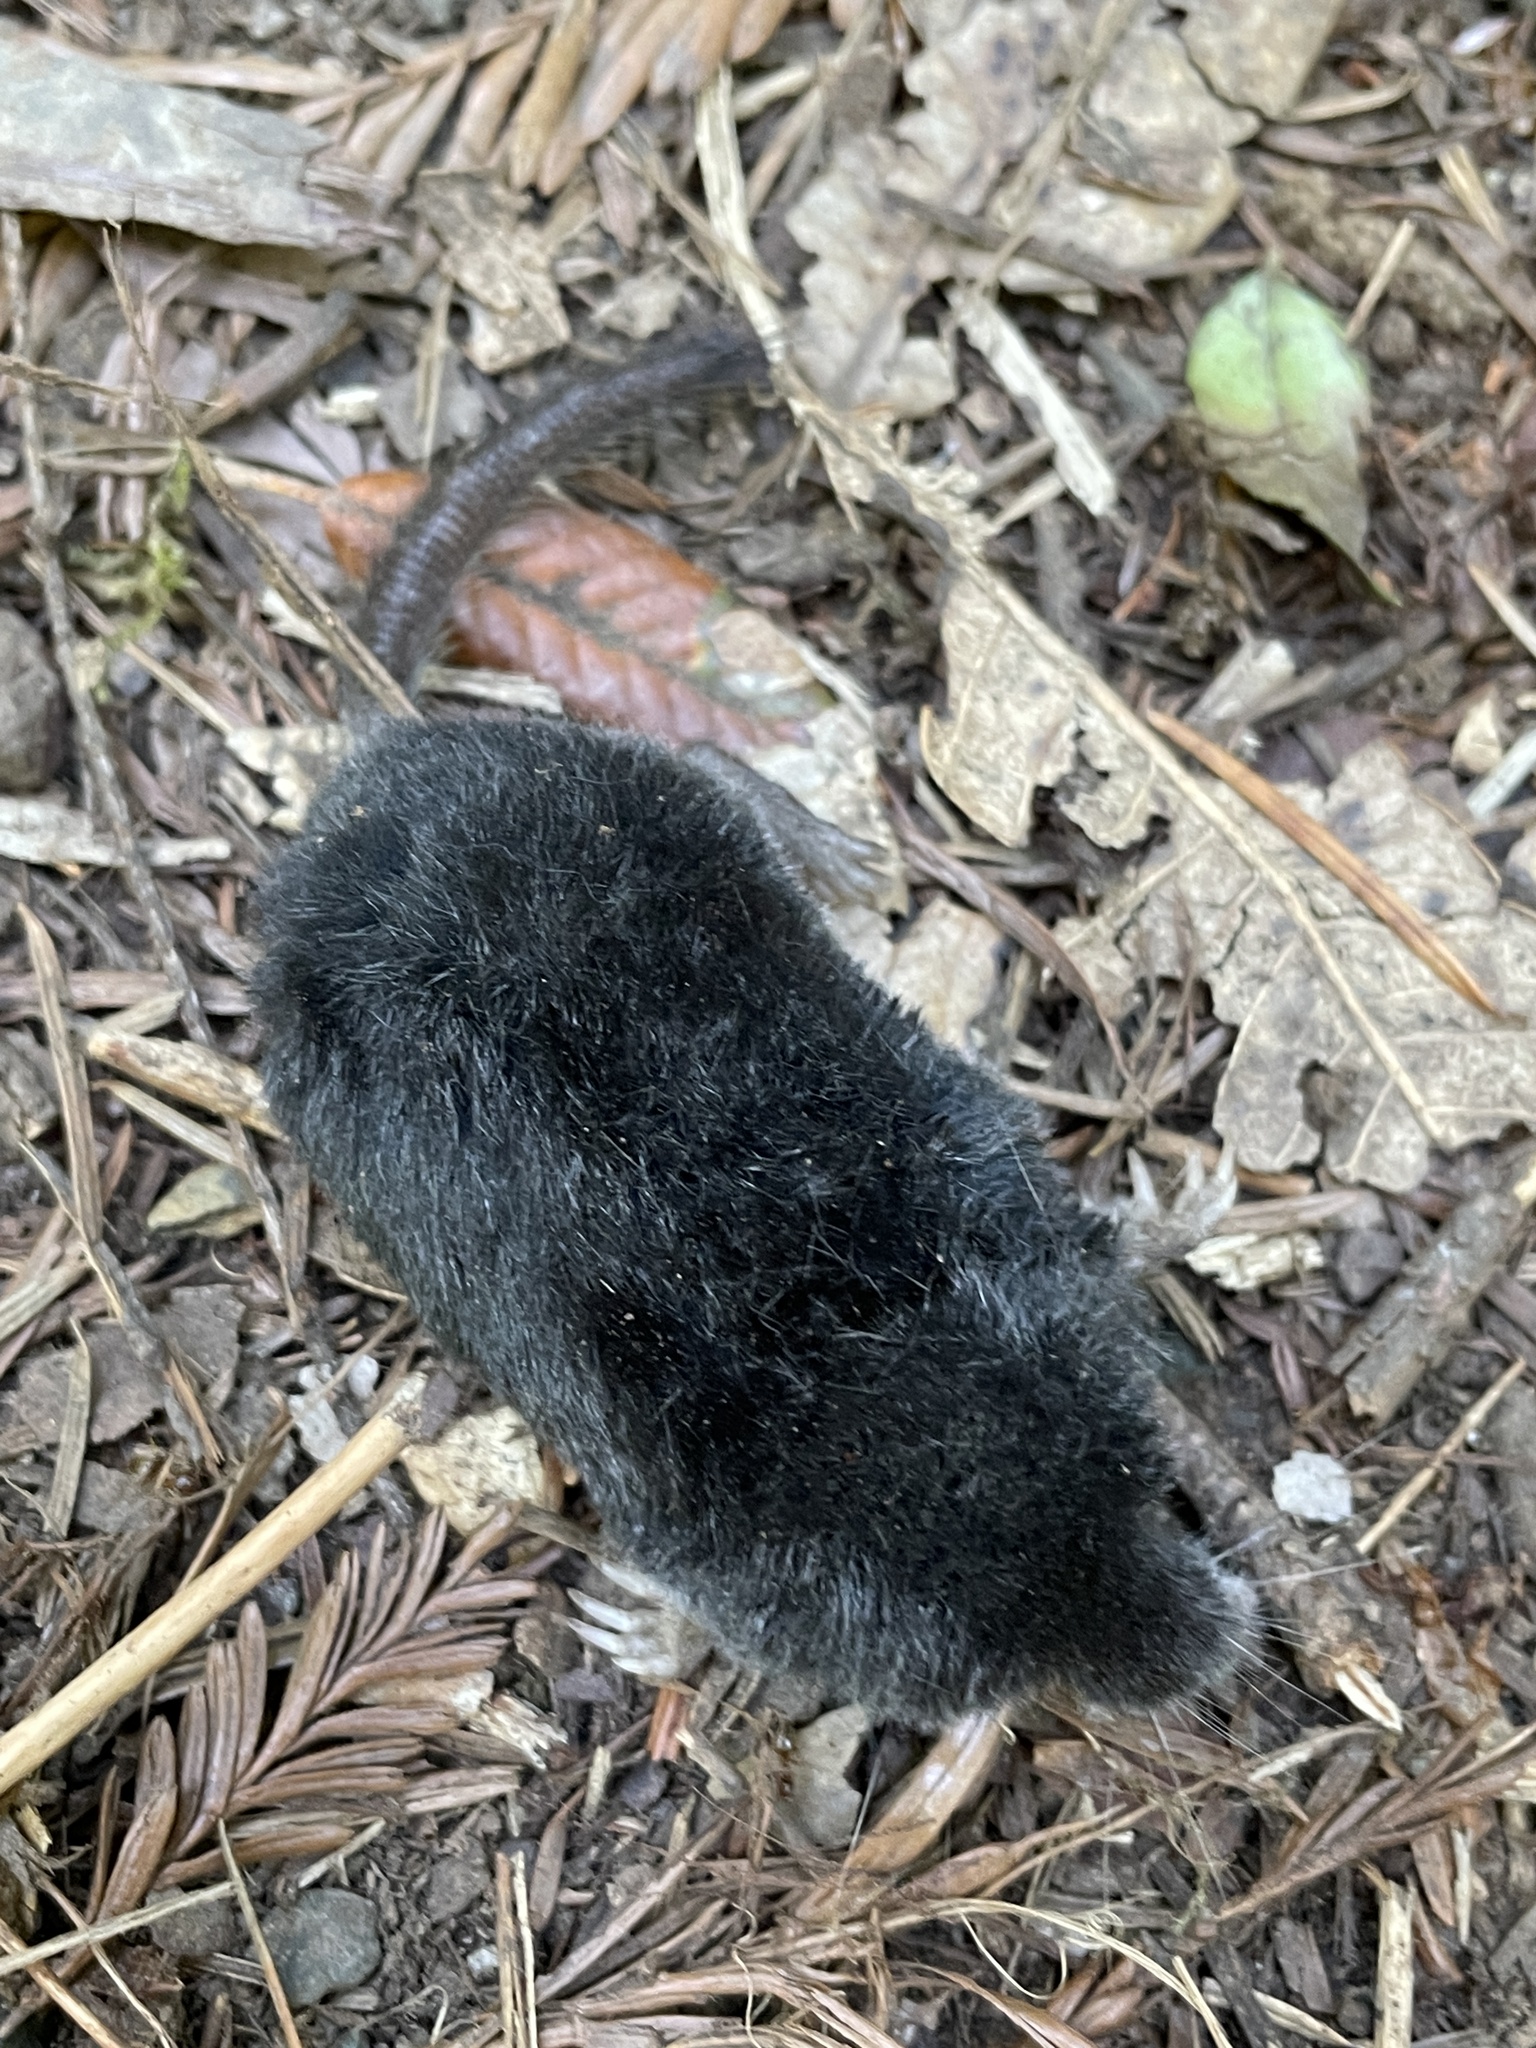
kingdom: Animalia
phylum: Chordata
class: Mammalia
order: Soricomorpha
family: Talpidae
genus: Neurotrichus
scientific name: Neurotrichus gibbsii
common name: American shrew mole
